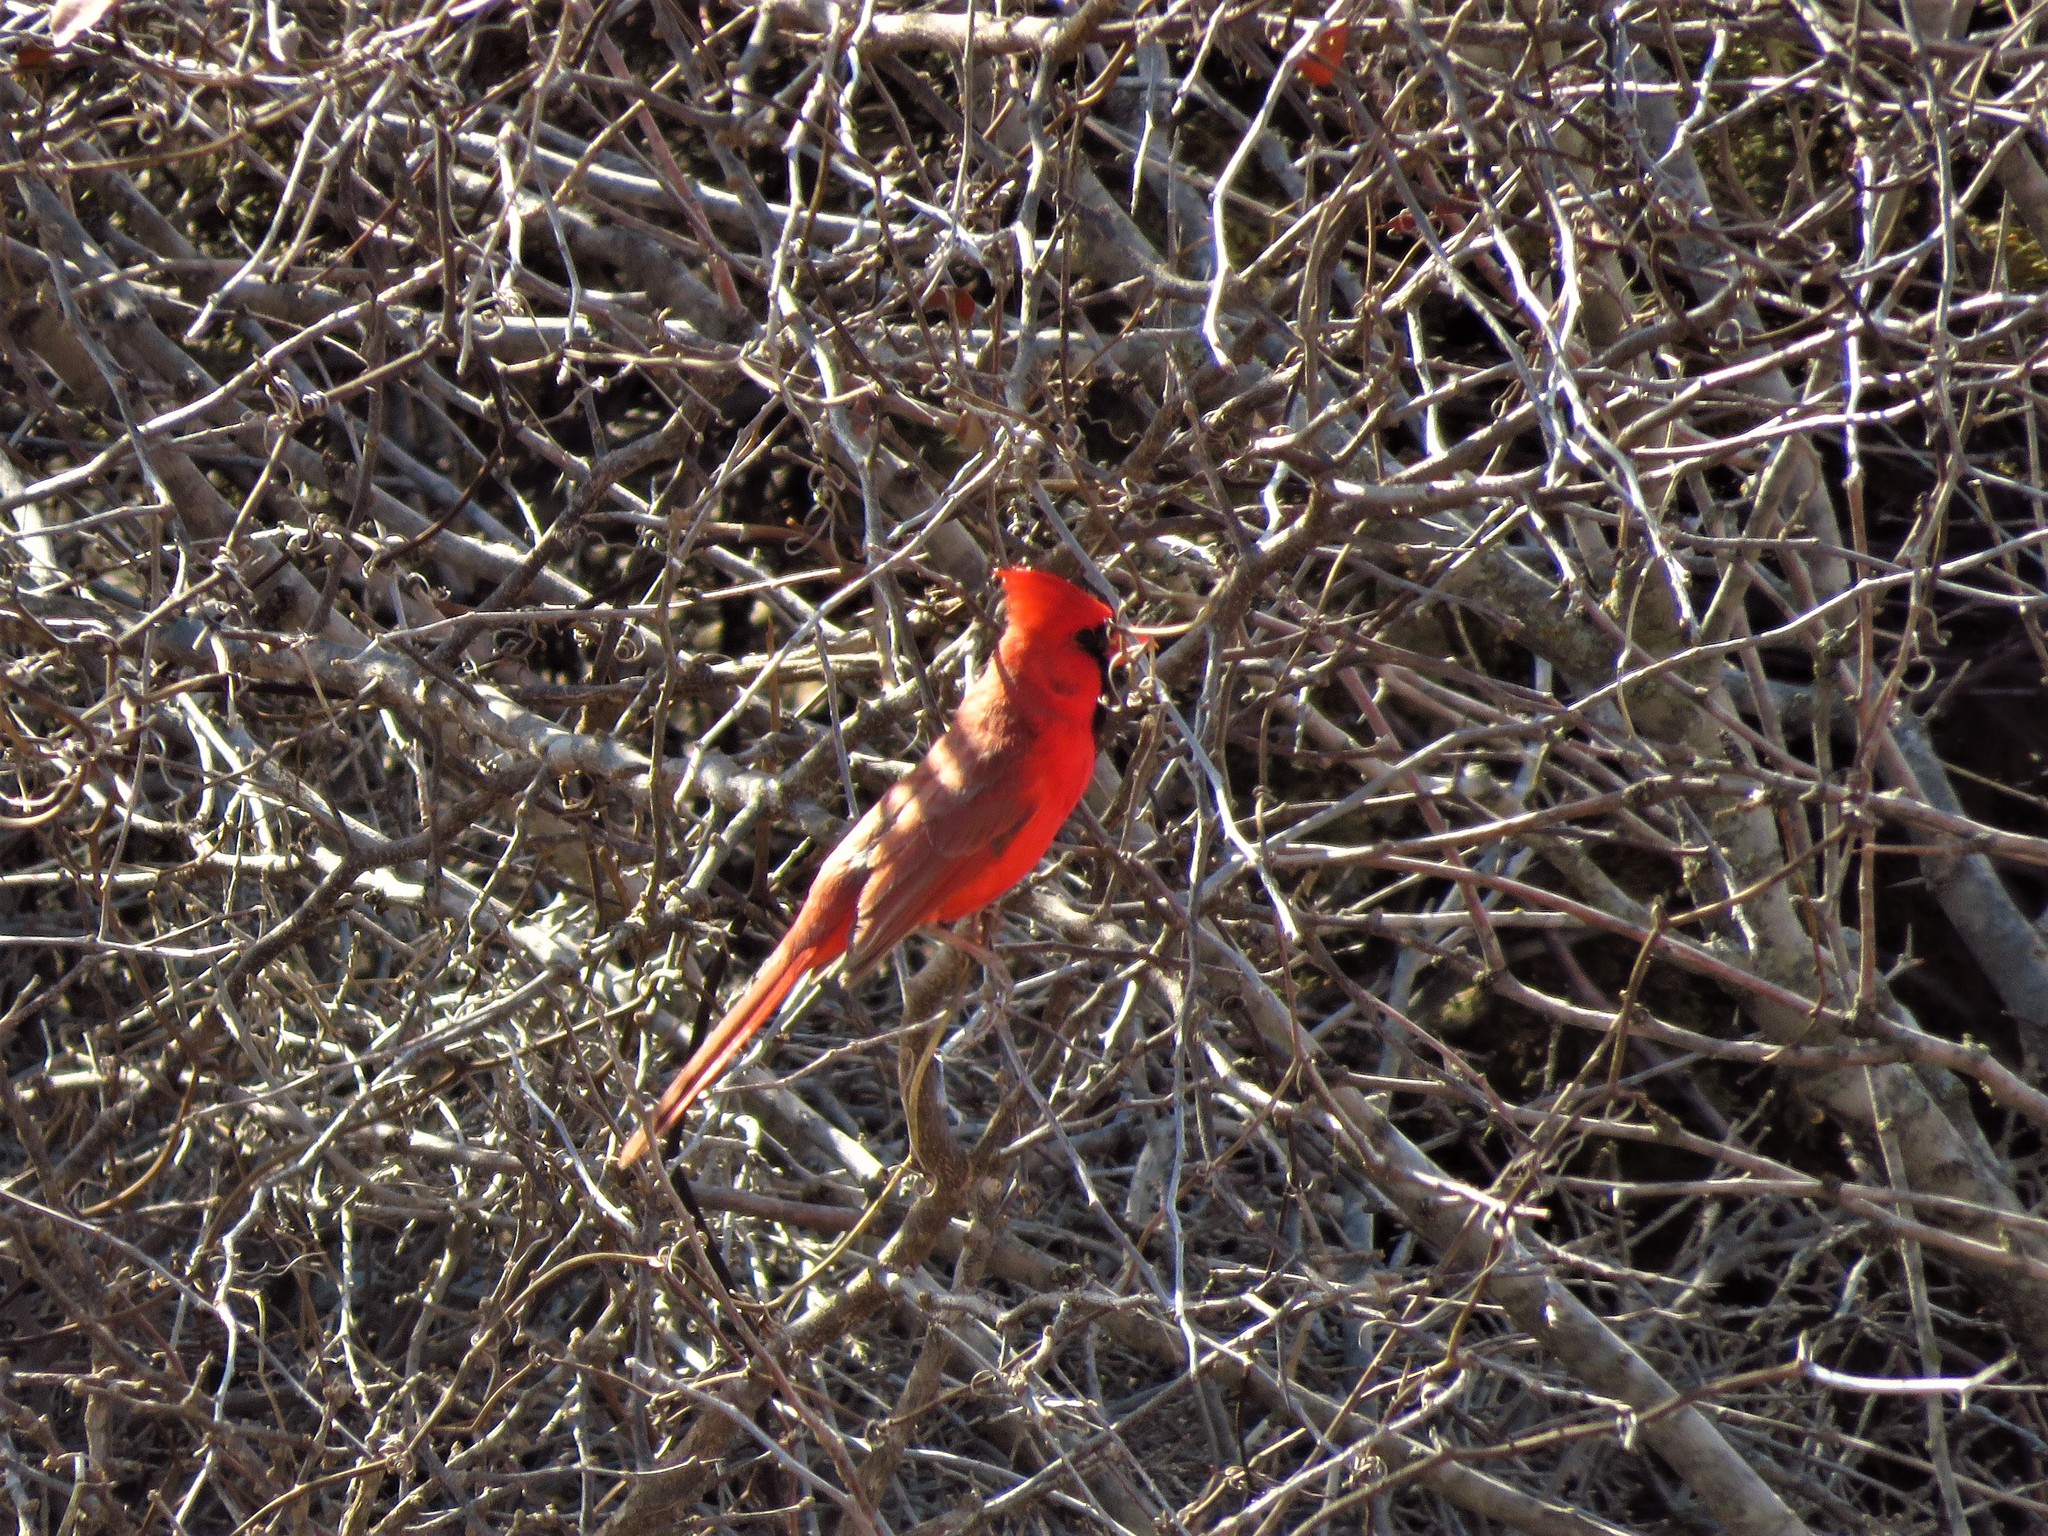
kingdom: Animalia
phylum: Chordata
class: Aves
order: Passeriformes
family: Cardinalidae
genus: Cardinalis
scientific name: Cardinalis cardinalis
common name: Northern cardinal
